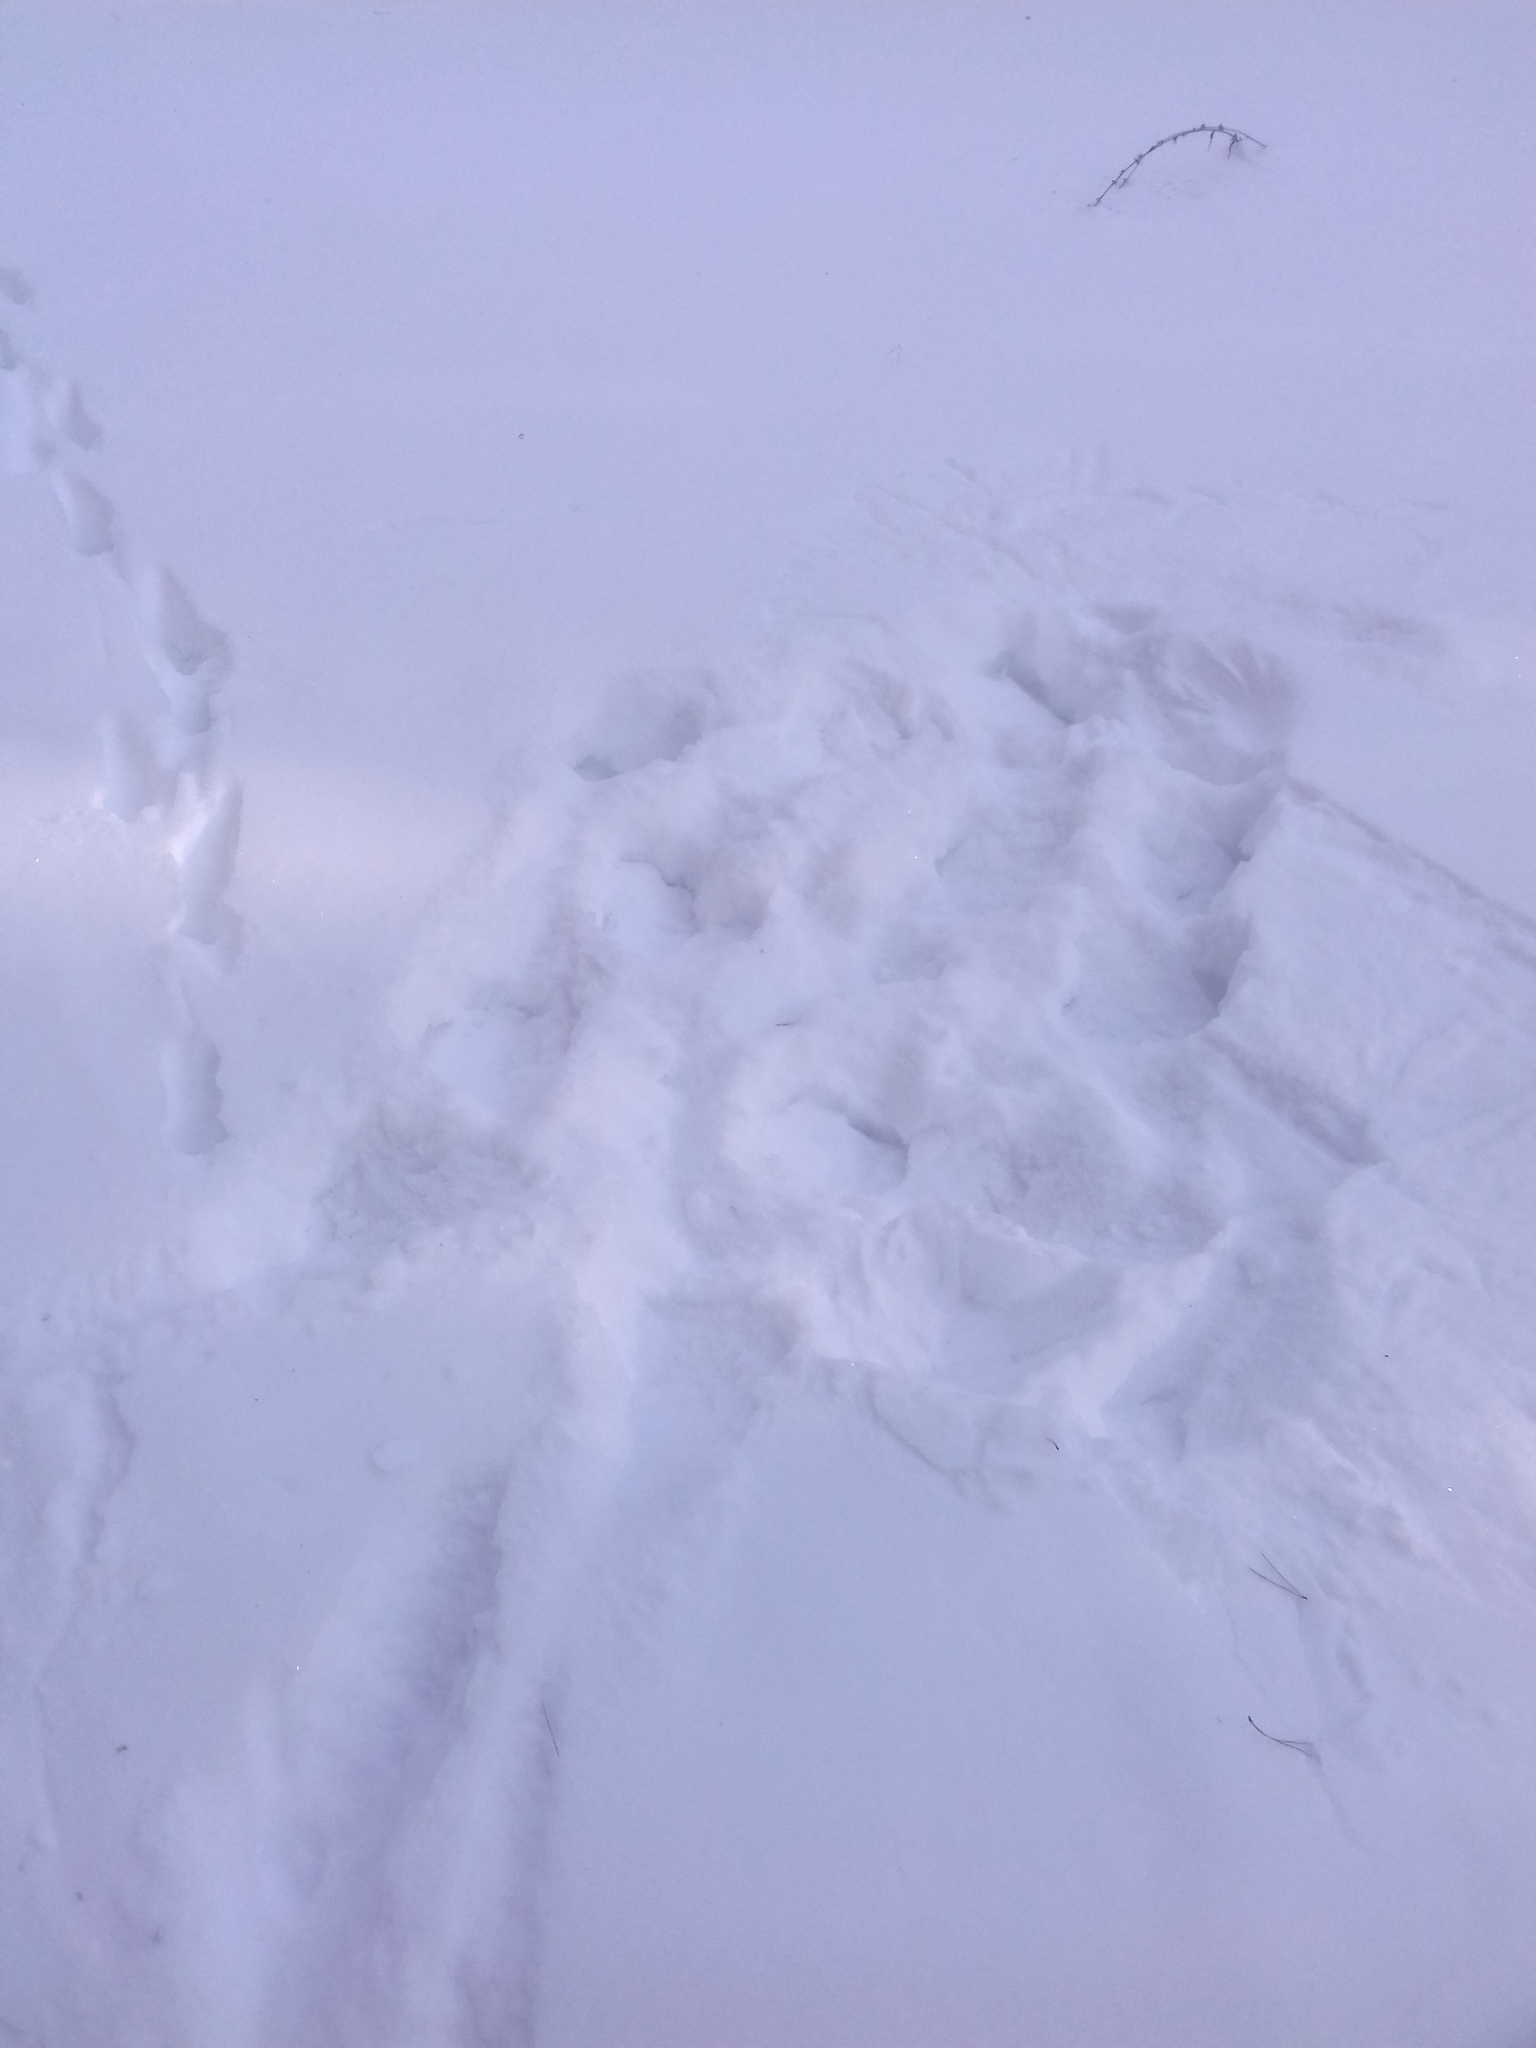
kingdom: Animalia
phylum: Chordata
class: Mammalia
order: Carnivora
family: Canidae
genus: Vulpes
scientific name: Vulpes vulpes
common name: Red fox
